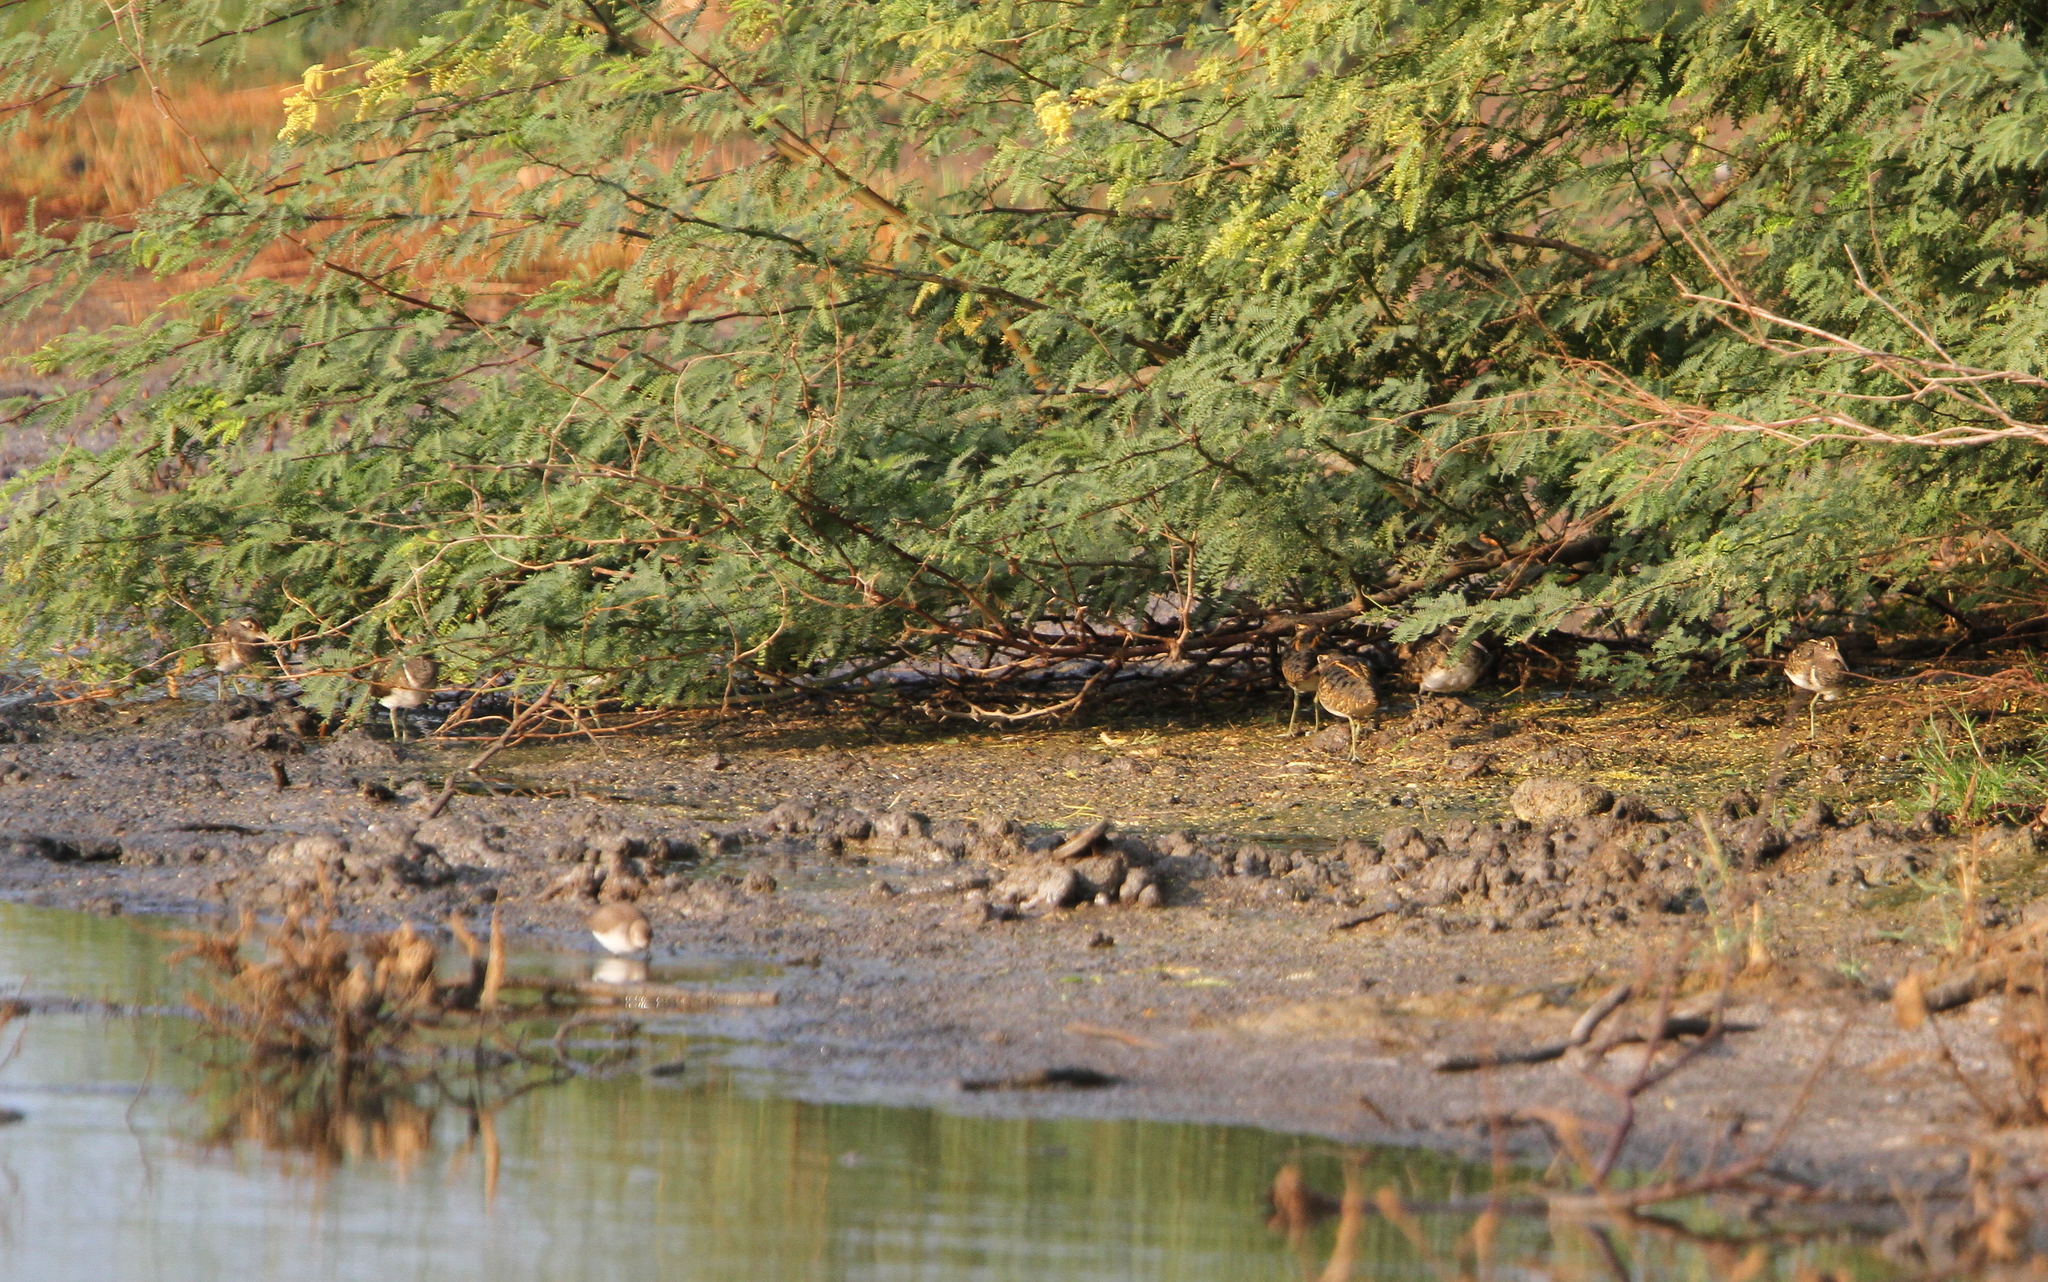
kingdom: Animalia
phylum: Chordata
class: Aves
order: Charadriiformes
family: Rostratulidae
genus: Rostratula
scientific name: Rostratula benghalensis
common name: Greater painted-snipe
